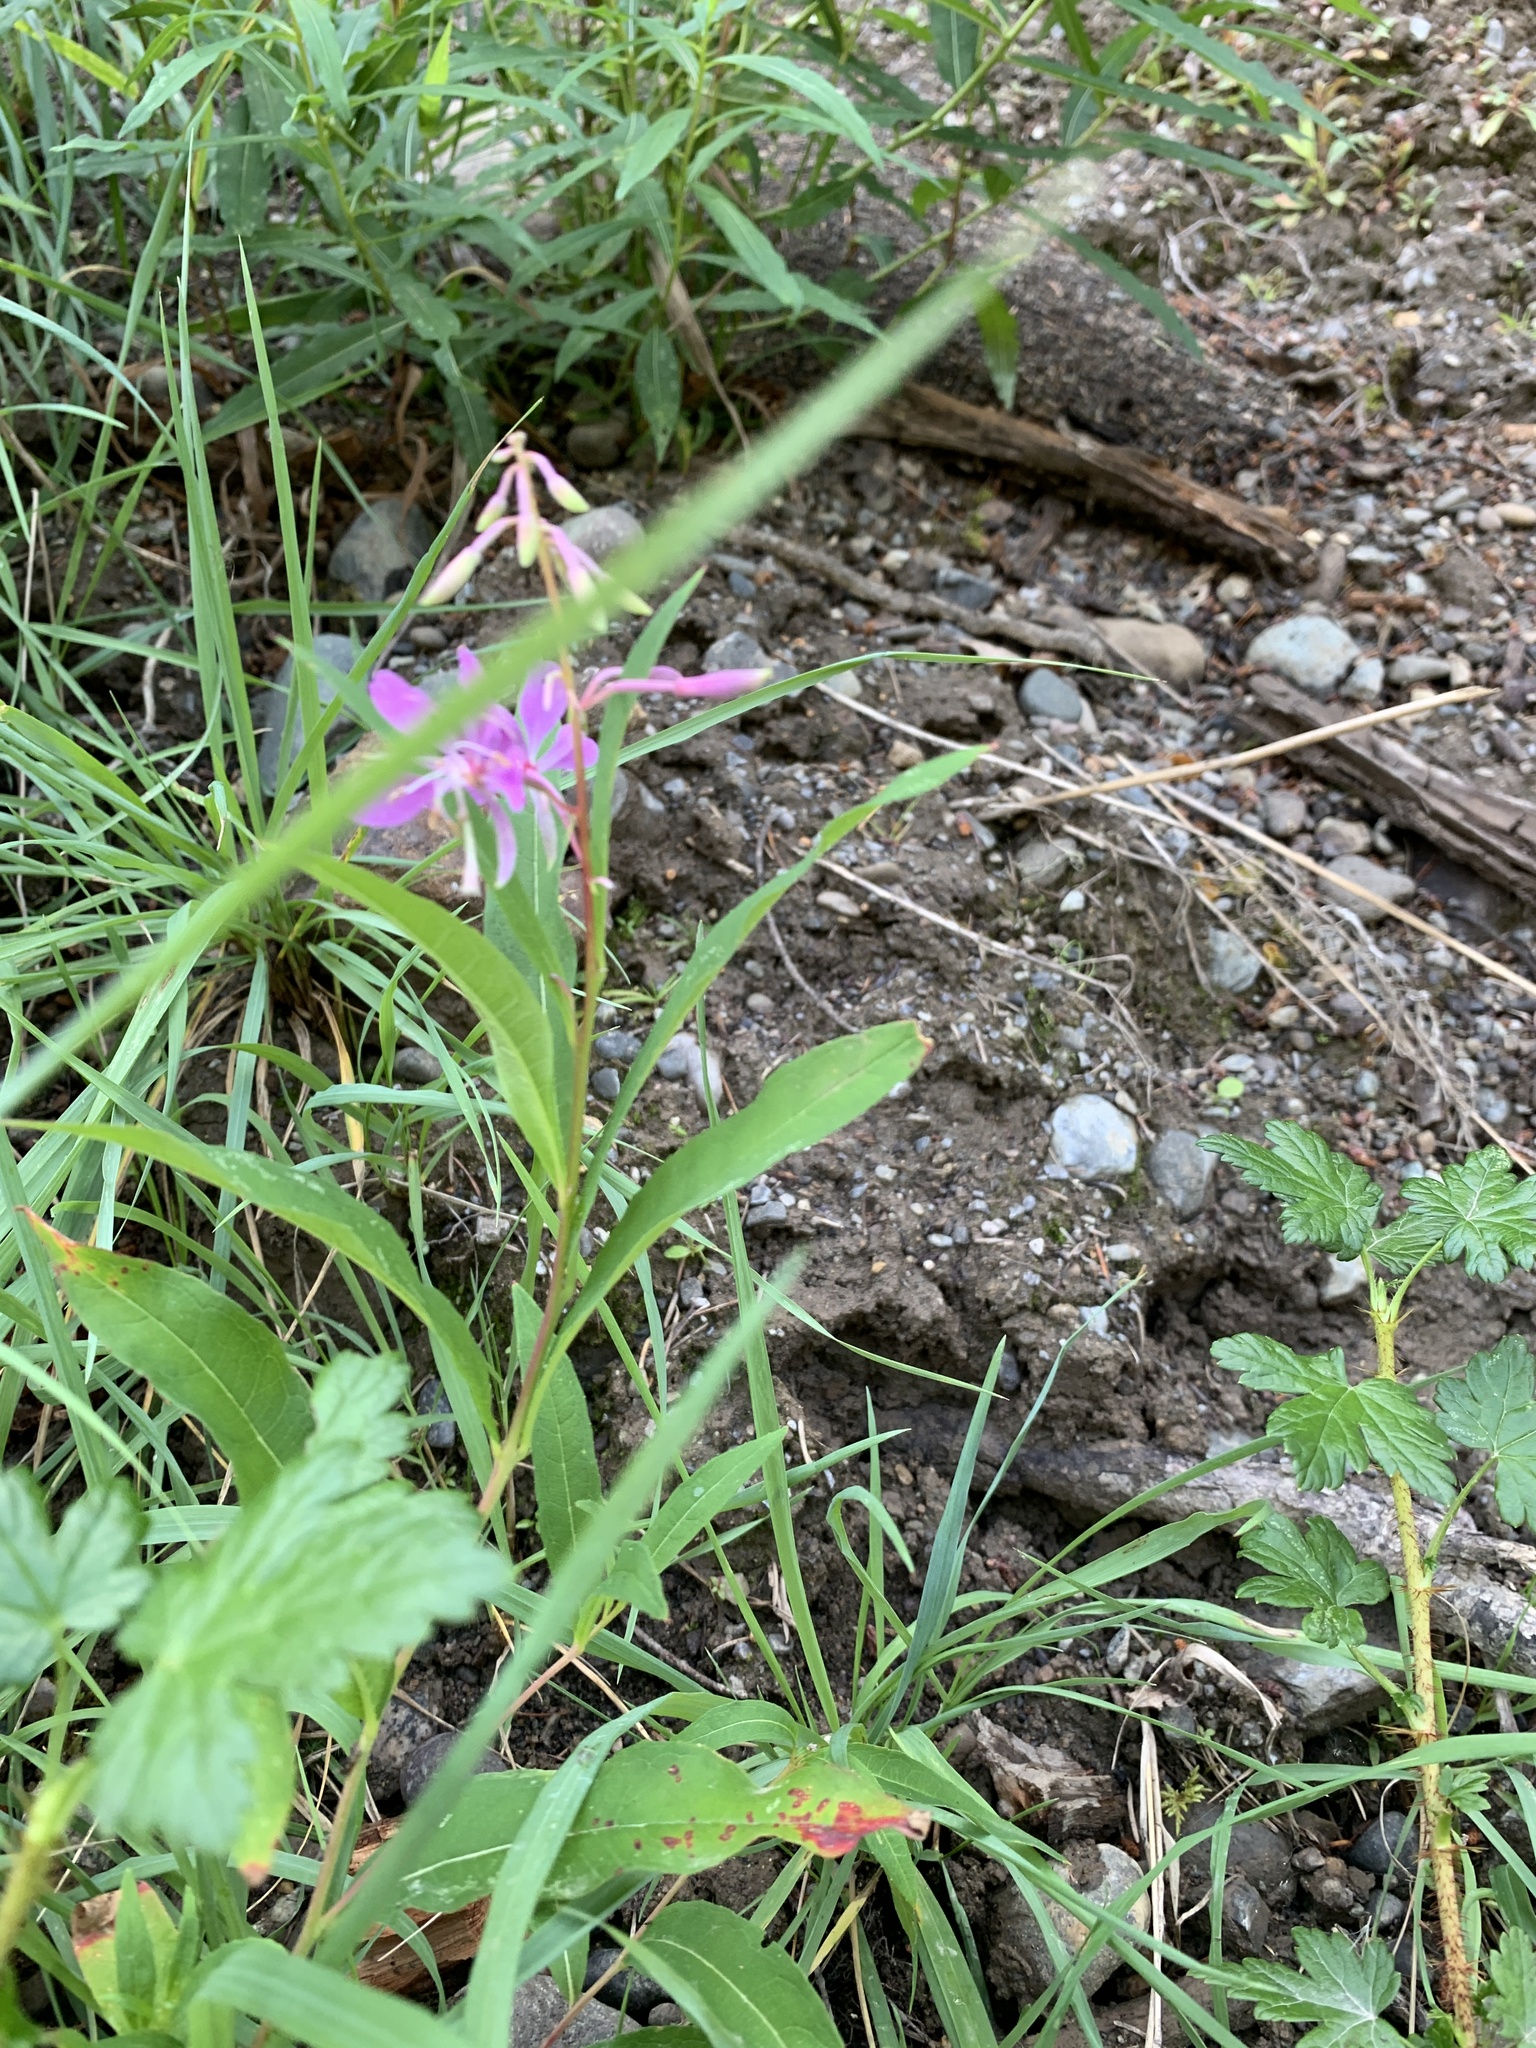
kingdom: Plantae
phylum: Tracheophyta
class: Magnoliopsida
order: Myrtales
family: Onagraceae
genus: Chamaenerion
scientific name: Chamaenerion angustifolium
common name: Fireweed
